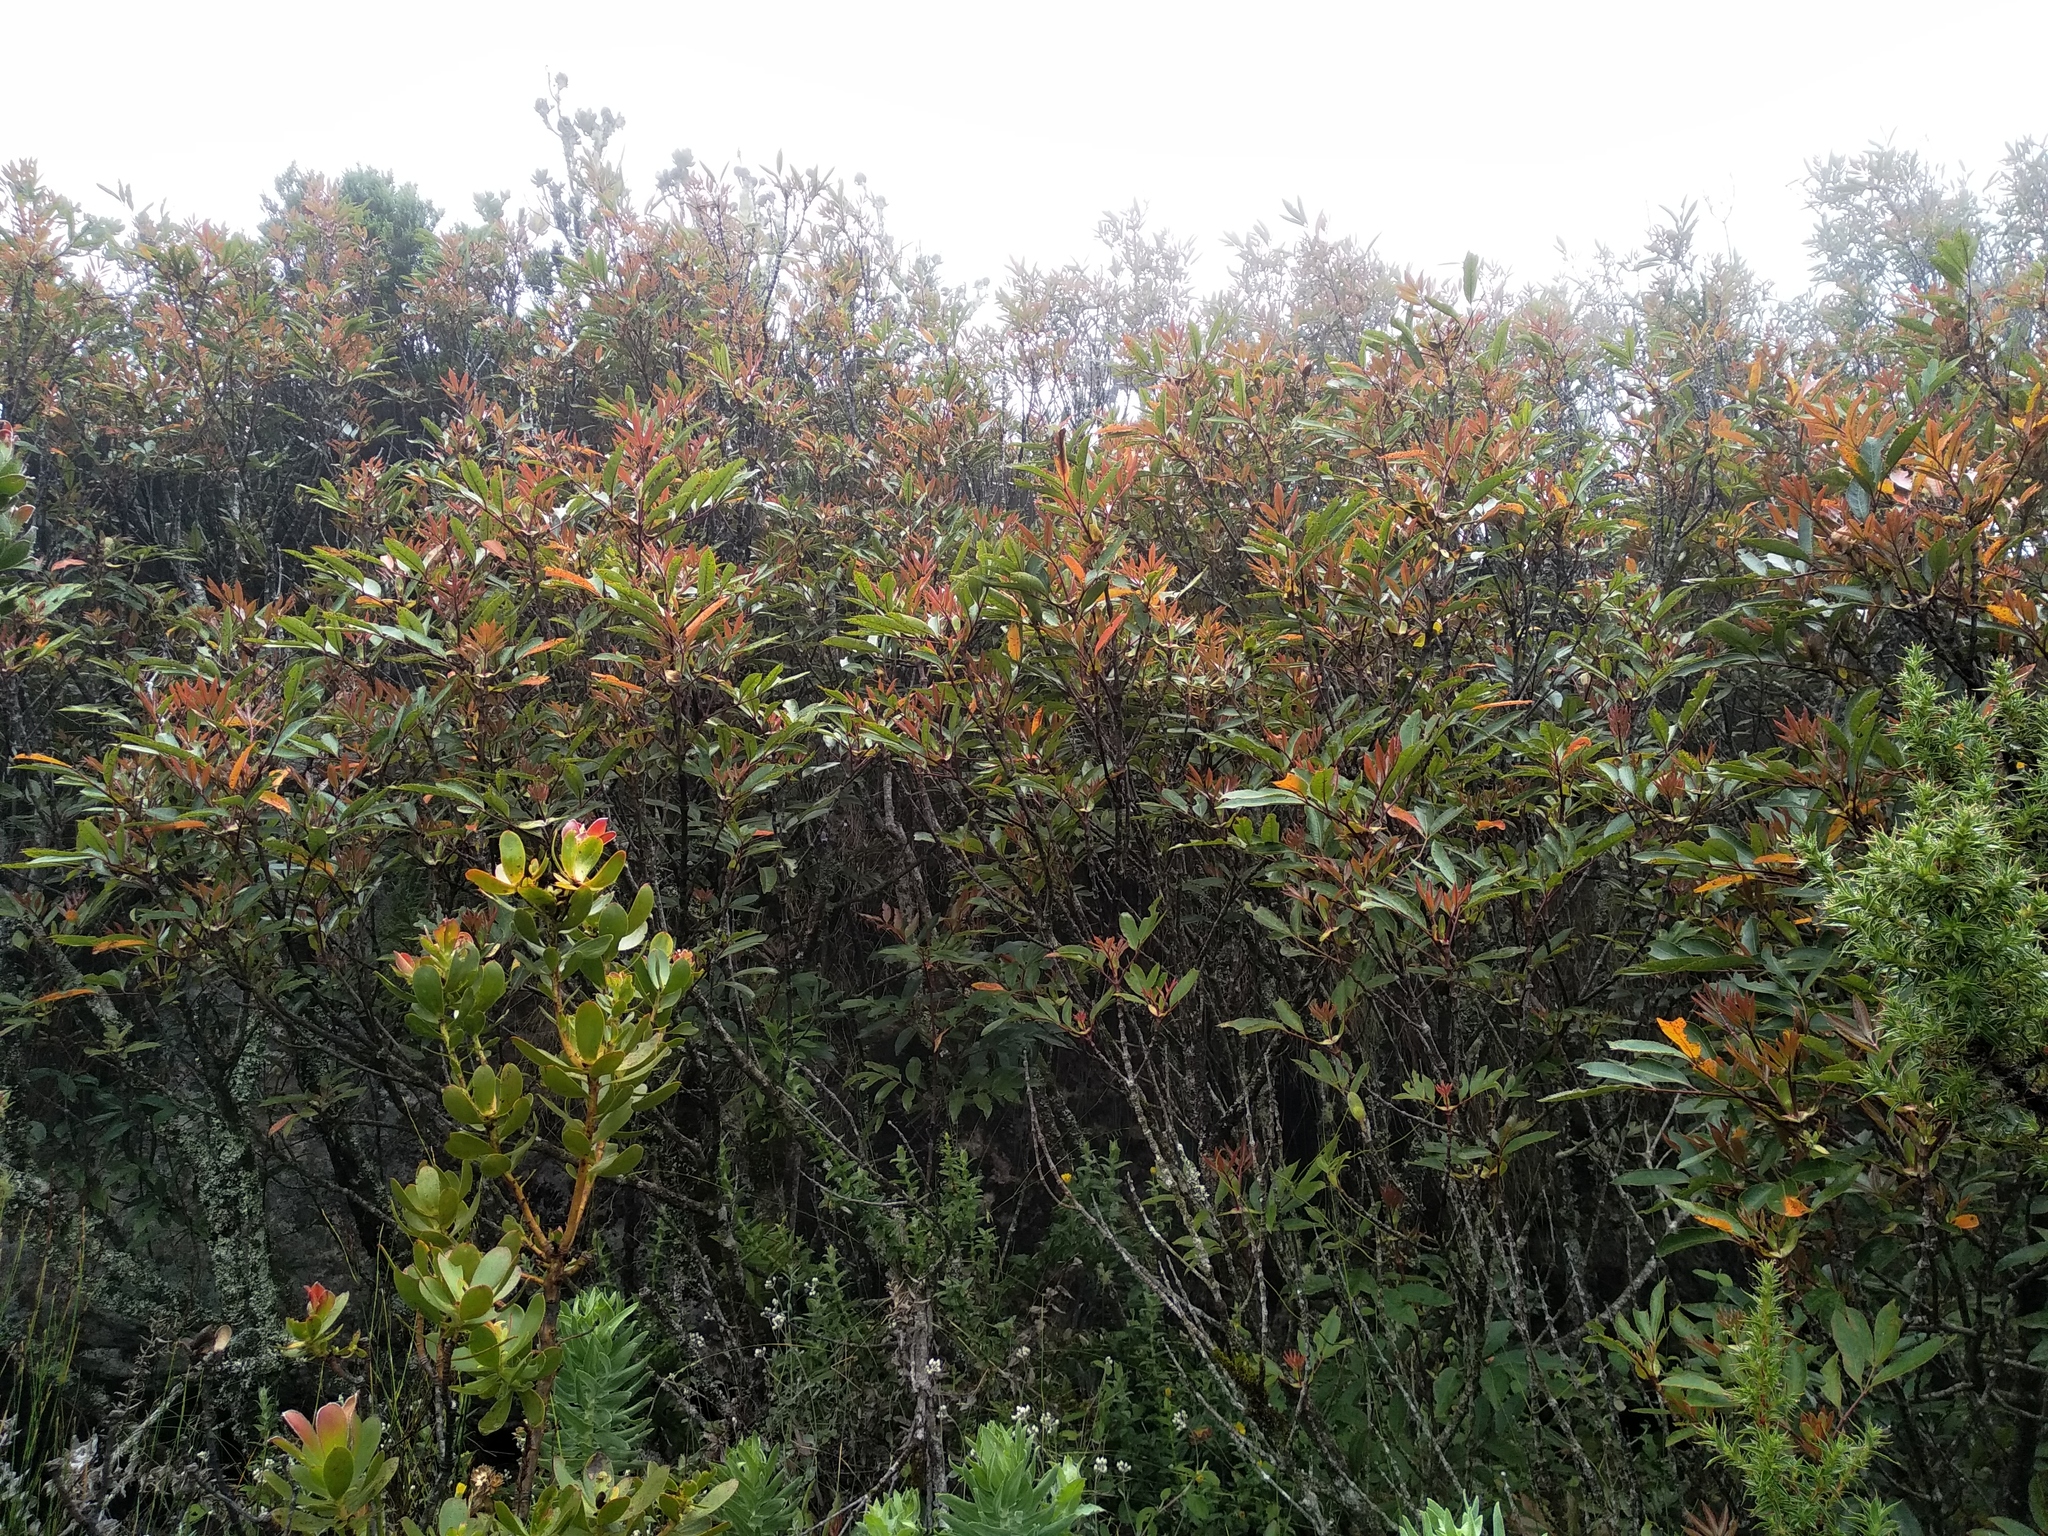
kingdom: Plantae
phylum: Tracheophyta
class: Magnoliopsida
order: Oxalidales
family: Cunoniaceae
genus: Cunonia
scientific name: Cunonia capensis
